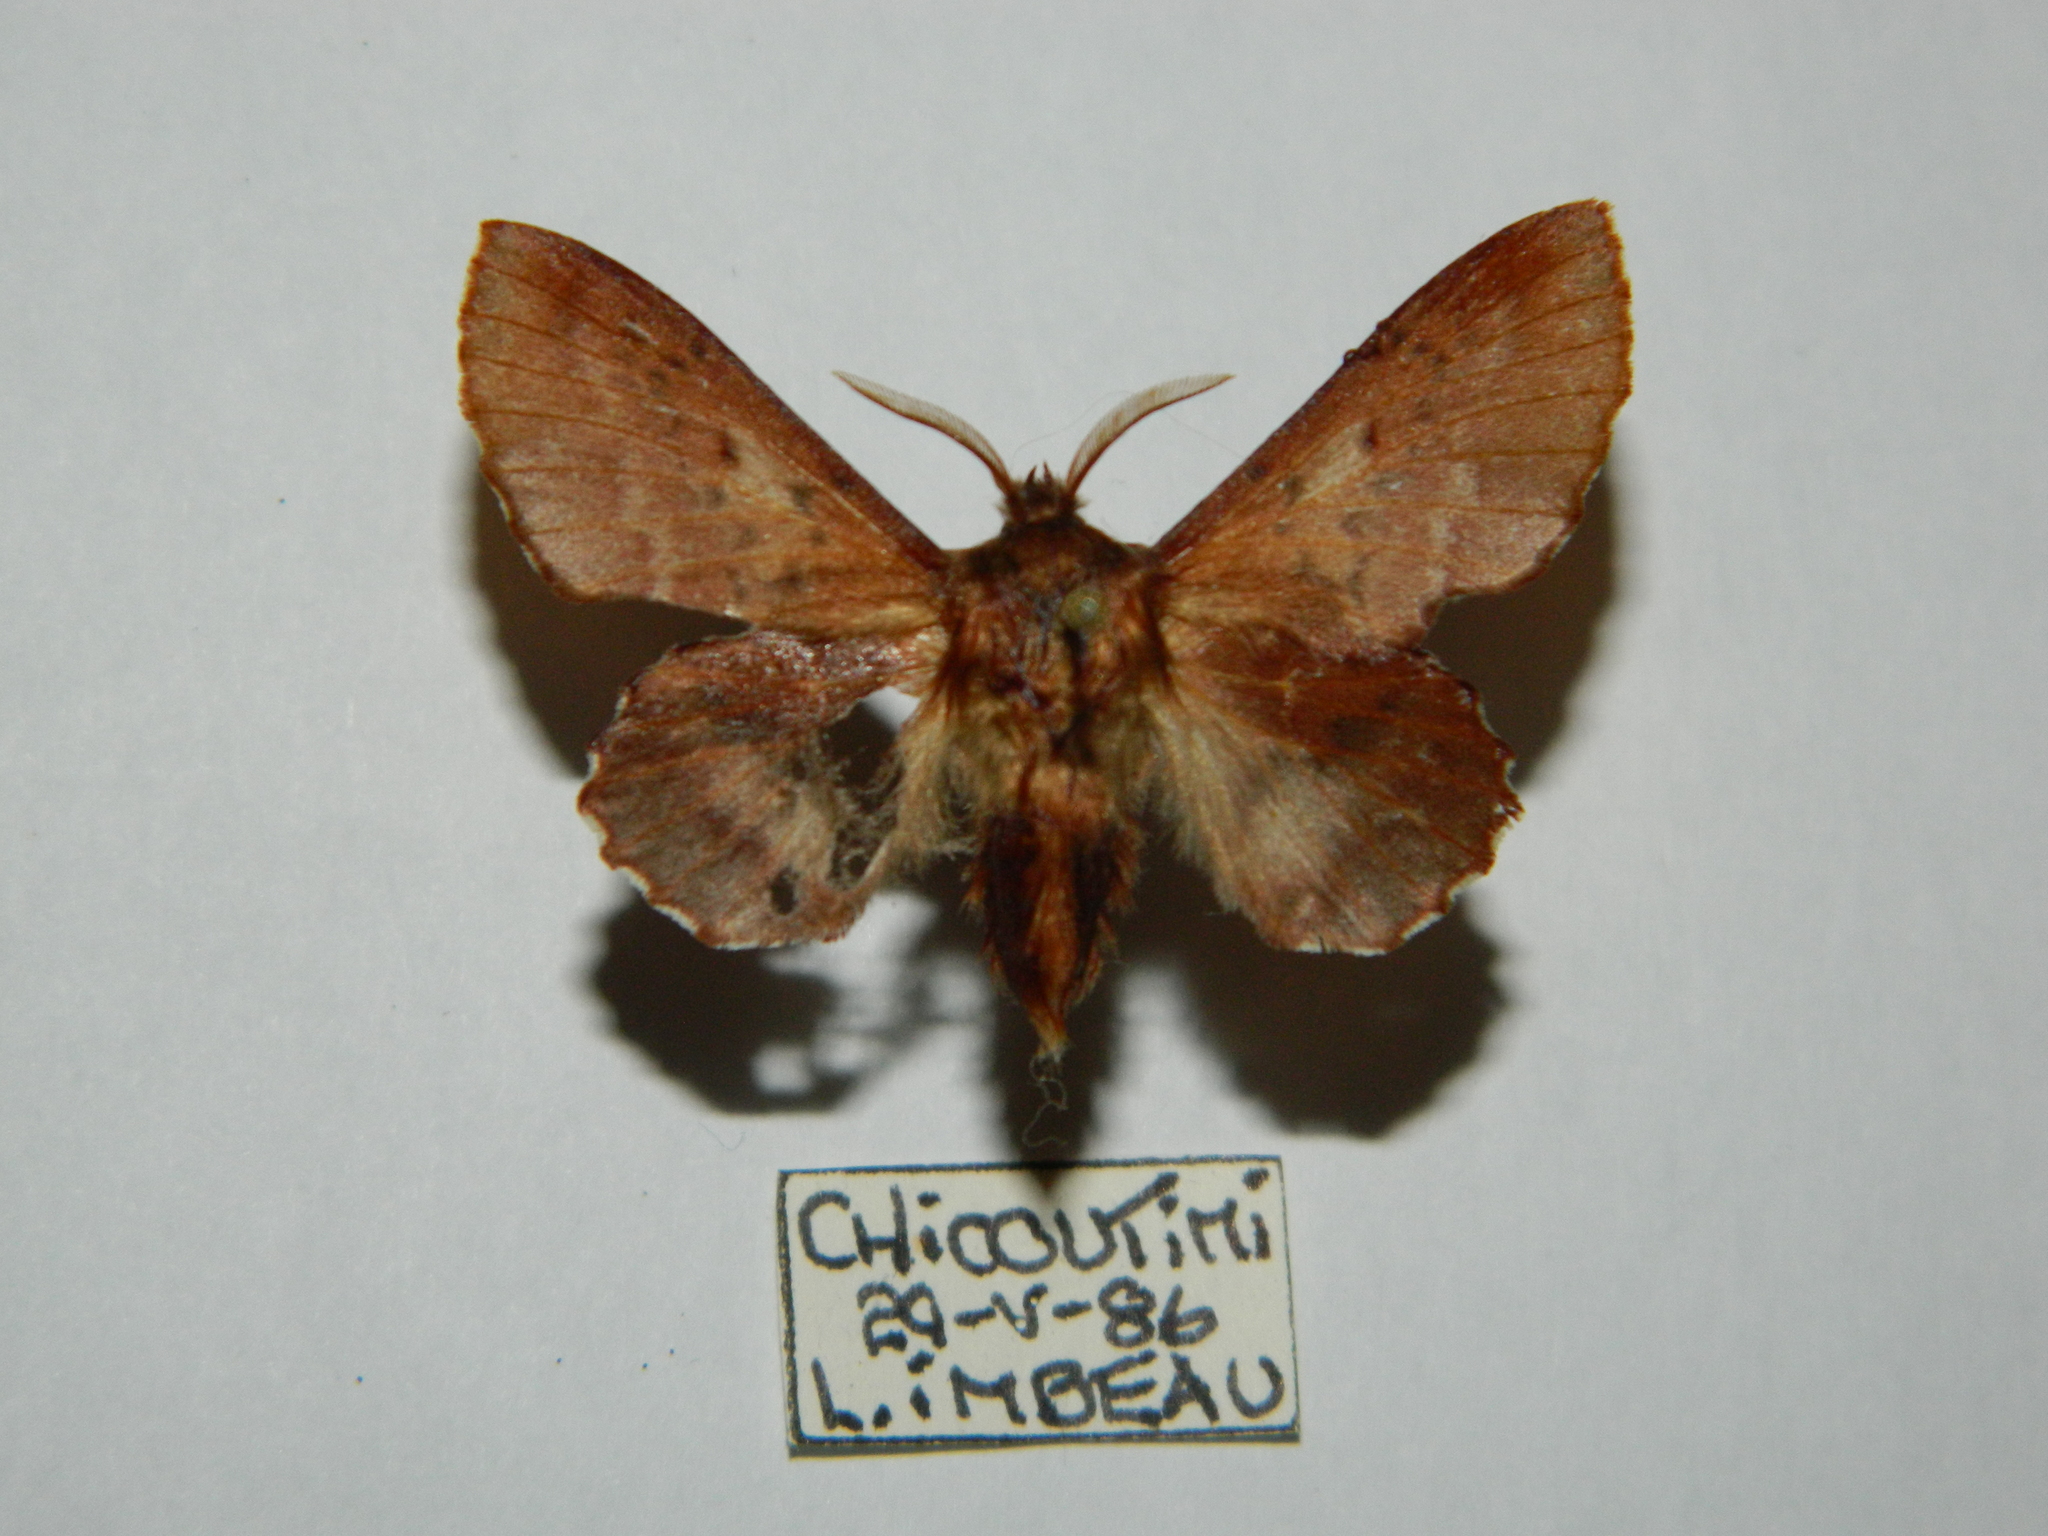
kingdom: Animalia
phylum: Arthropoda
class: Insecta
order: Lepidoptera
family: Lasiocampidae
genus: Phyllodesma
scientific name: Phyllodesma americana
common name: American lappet moth
